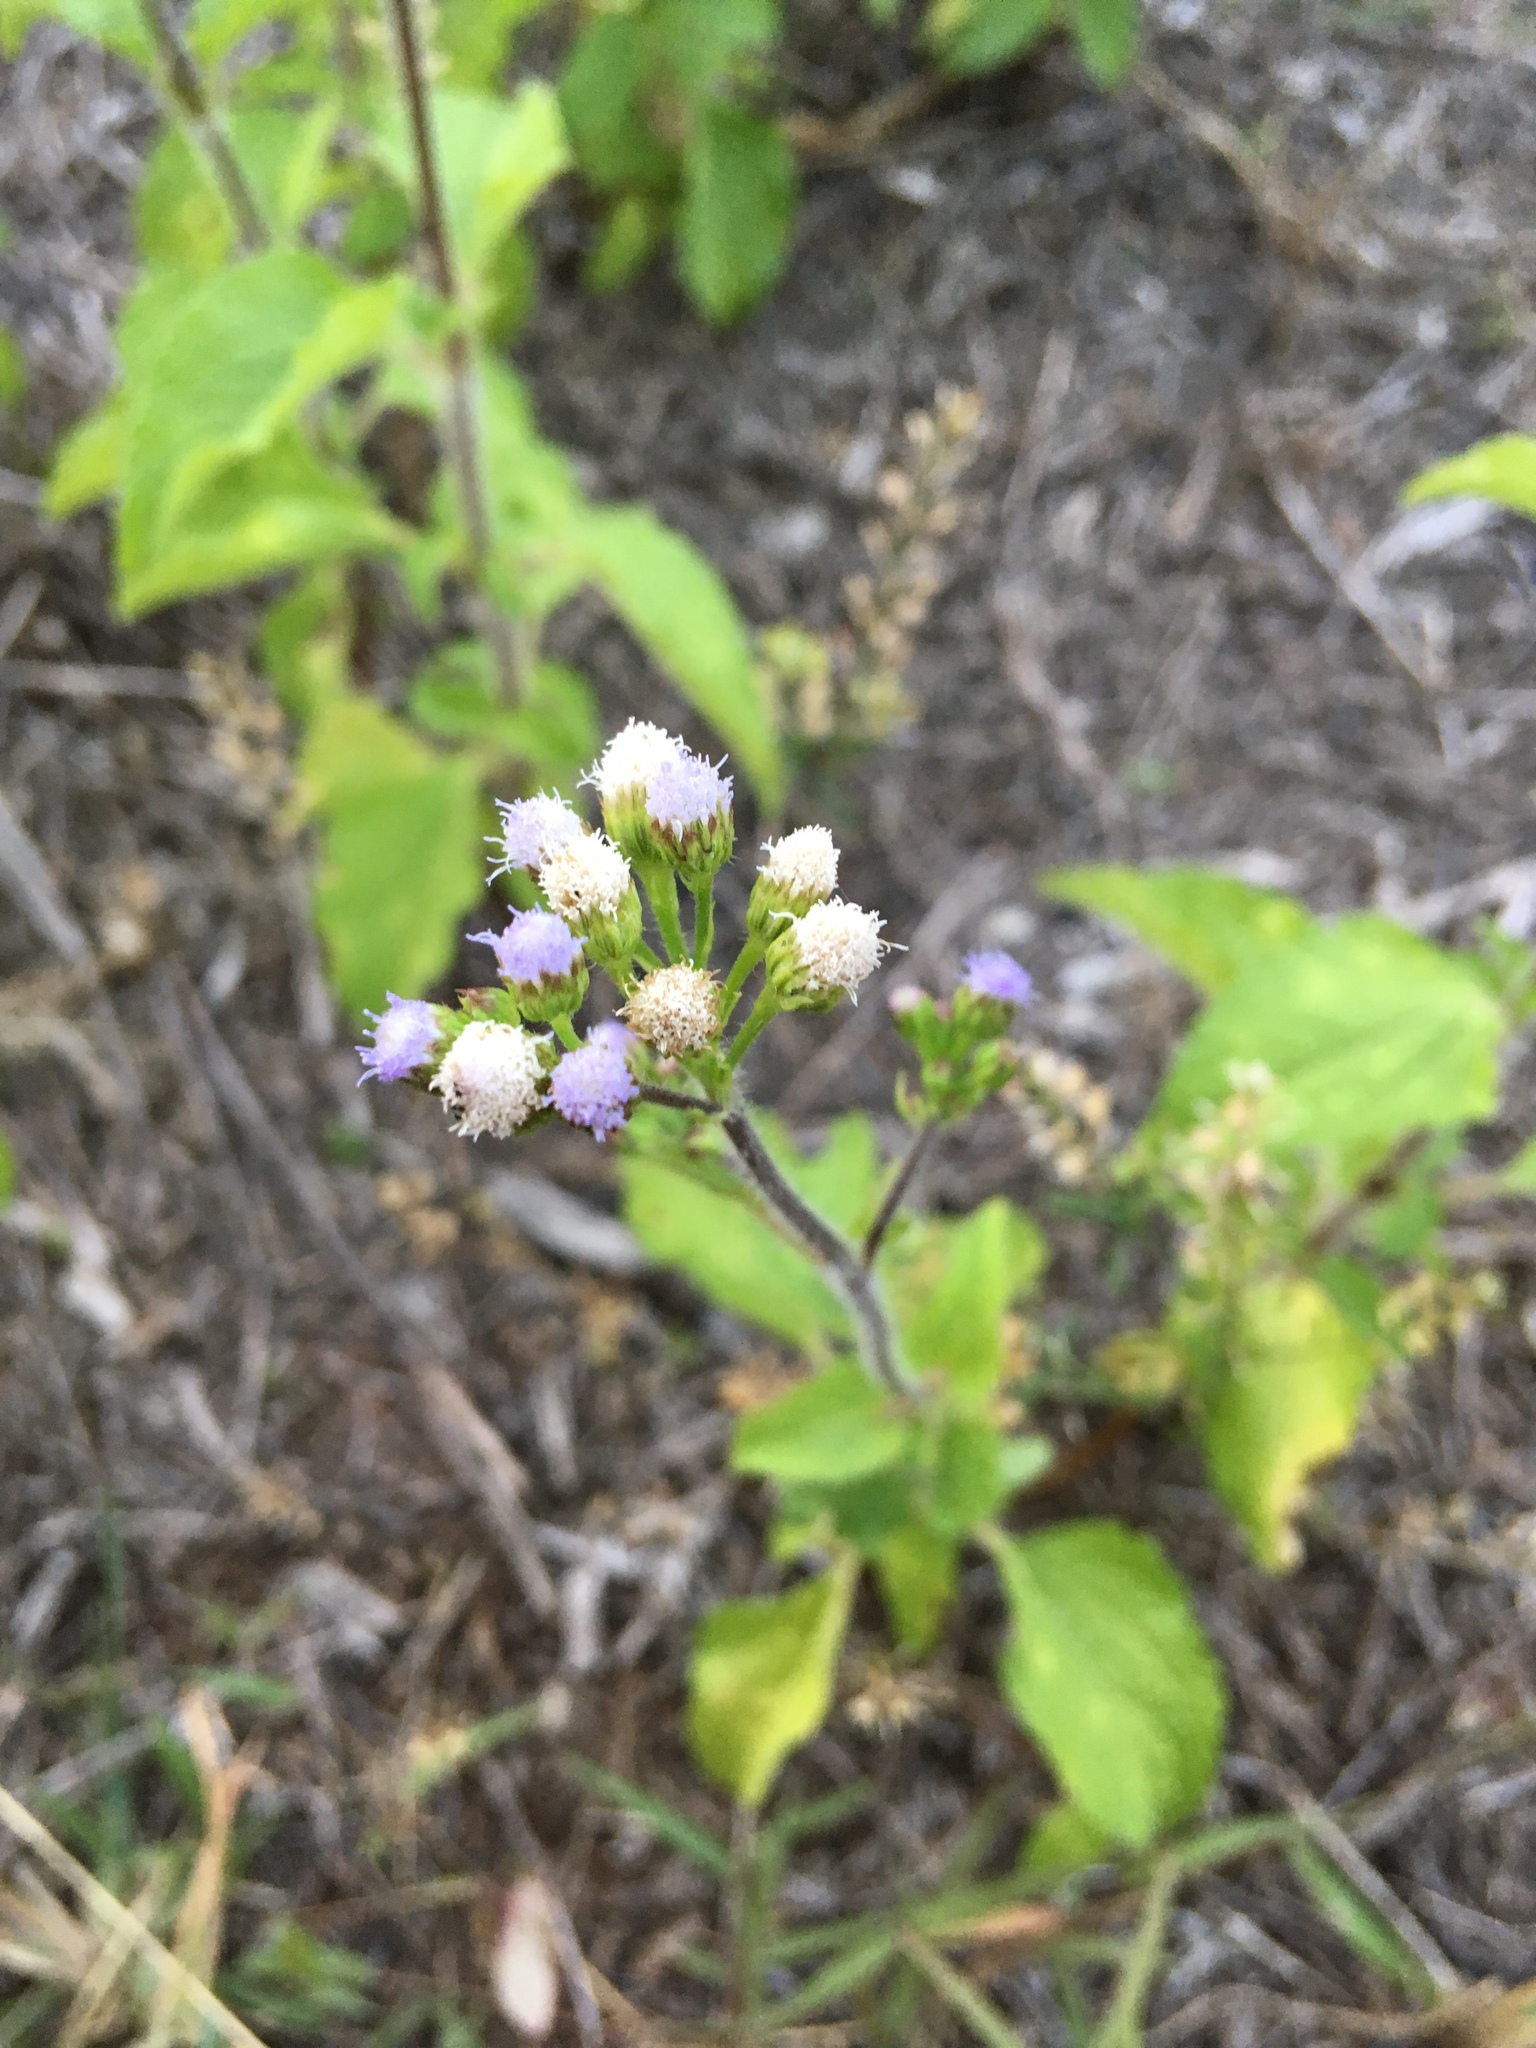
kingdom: Plantae
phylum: Tracheophyta
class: Magnoliopsida
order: Asterales
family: Asteraceae
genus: Ageratum
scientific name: Ageratum conyzoides
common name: Tropical whiteweed
